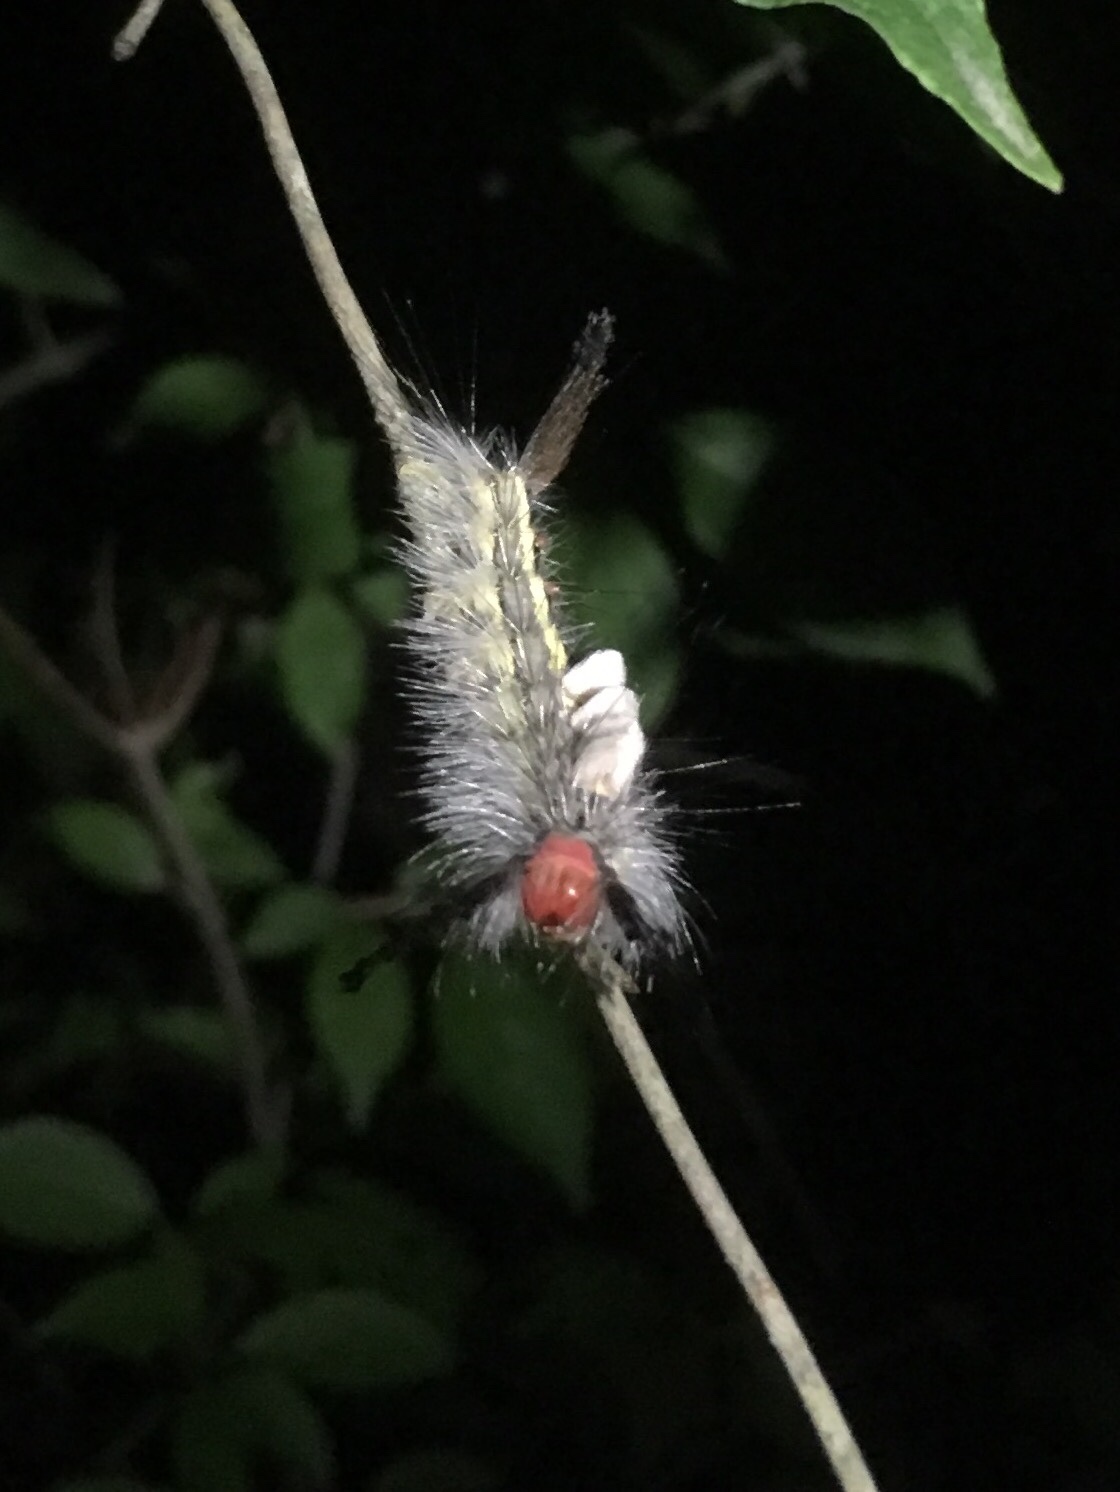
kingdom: Animalia
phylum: Arthropoda
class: Insecta
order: Lepidoptera
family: Erebidae
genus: Orgyia
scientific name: Orgyia leucostigma
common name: White-marked tussock moth
